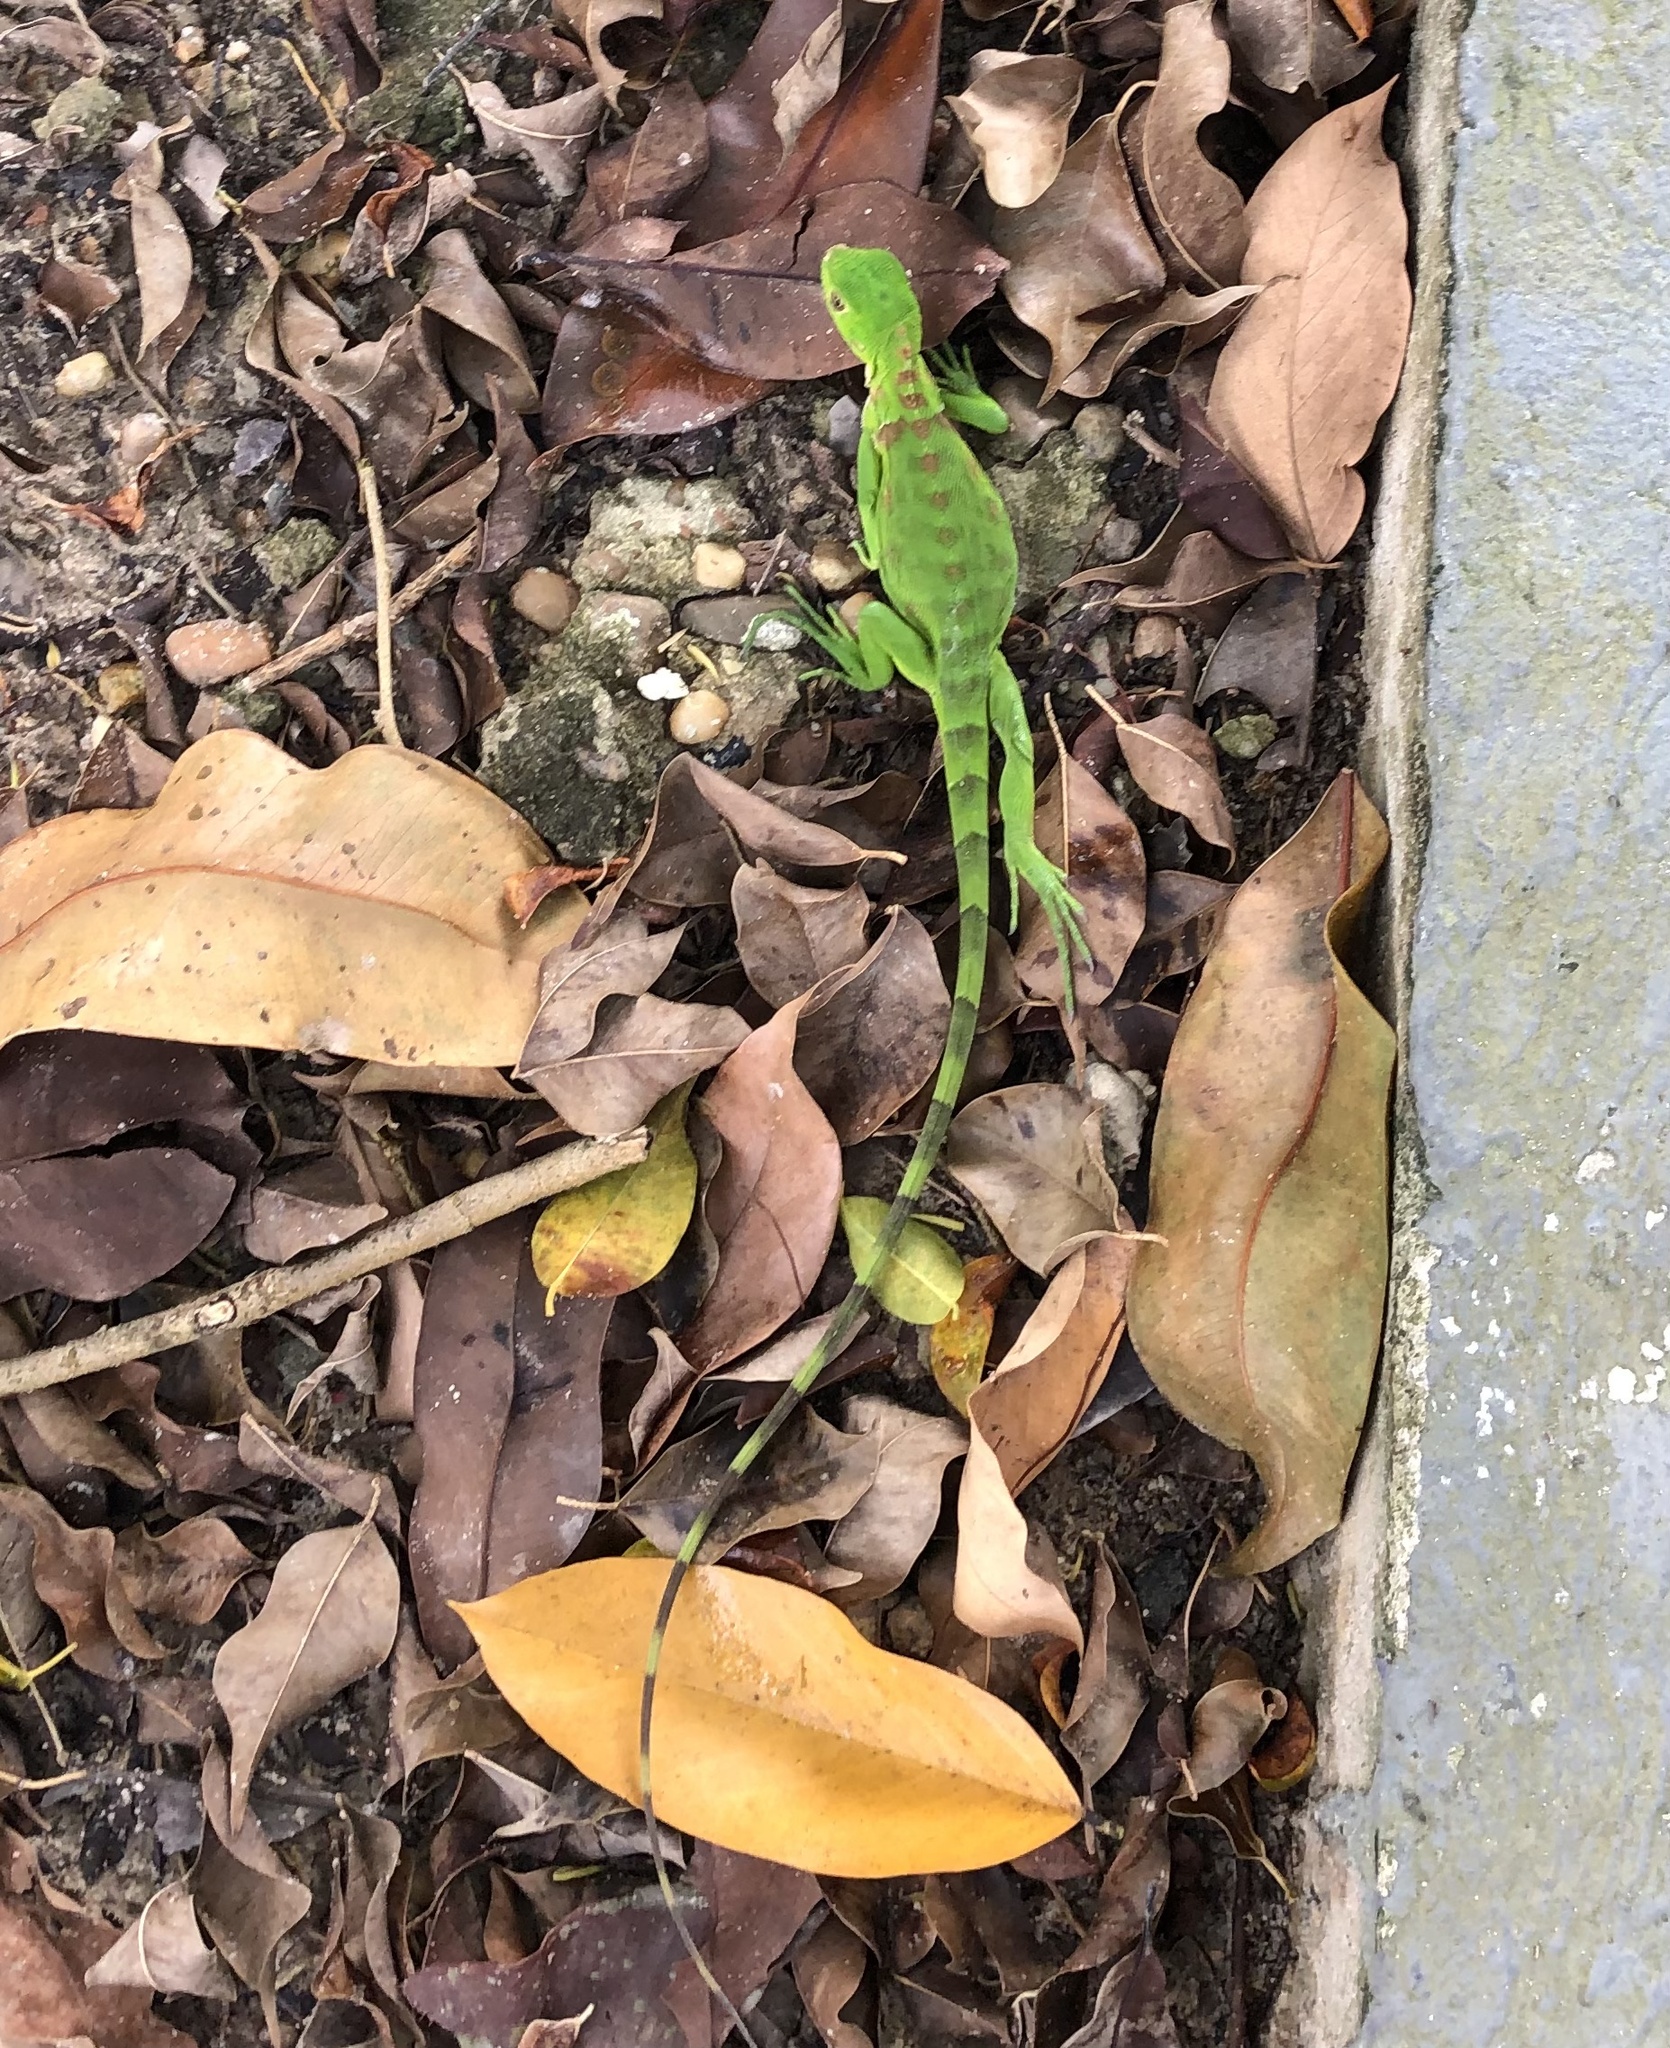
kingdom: Animalia
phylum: Chordata
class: Squamata
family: Iguanidae
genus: Iguana
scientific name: Iguana iguana
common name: Green iguana
